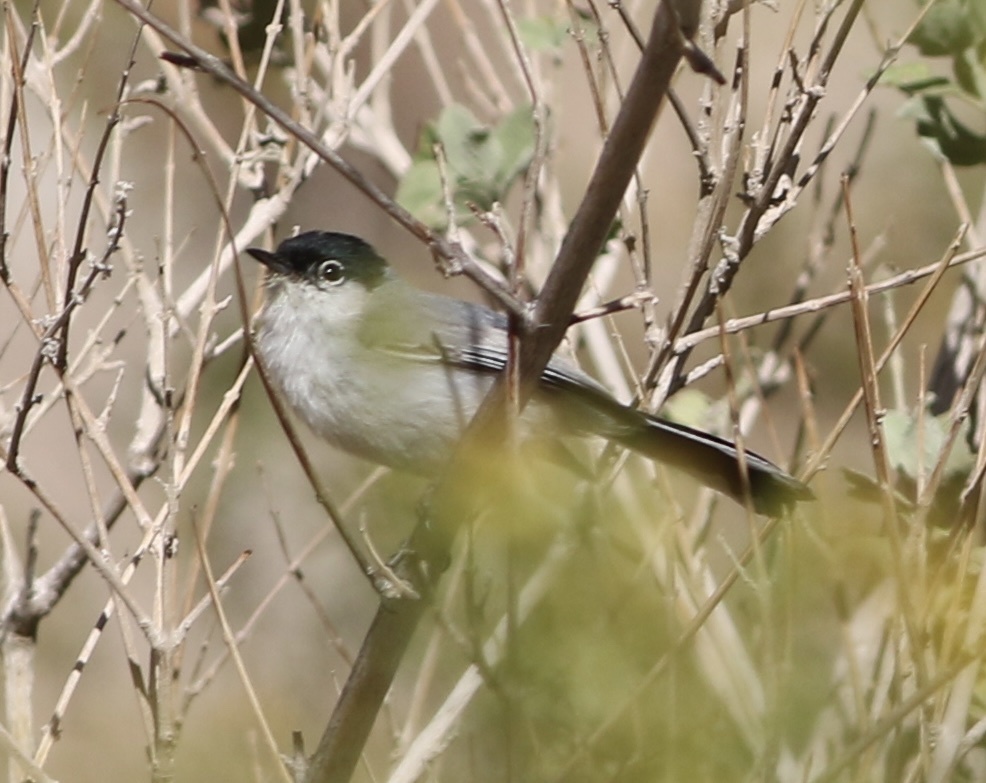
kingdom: Animalia
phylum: Chordata
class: Aves
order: Passeriformes
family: Polioptilidae
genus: Polioptila
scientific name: Polioptila melanura
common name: Black-tailed gnatcatcher
